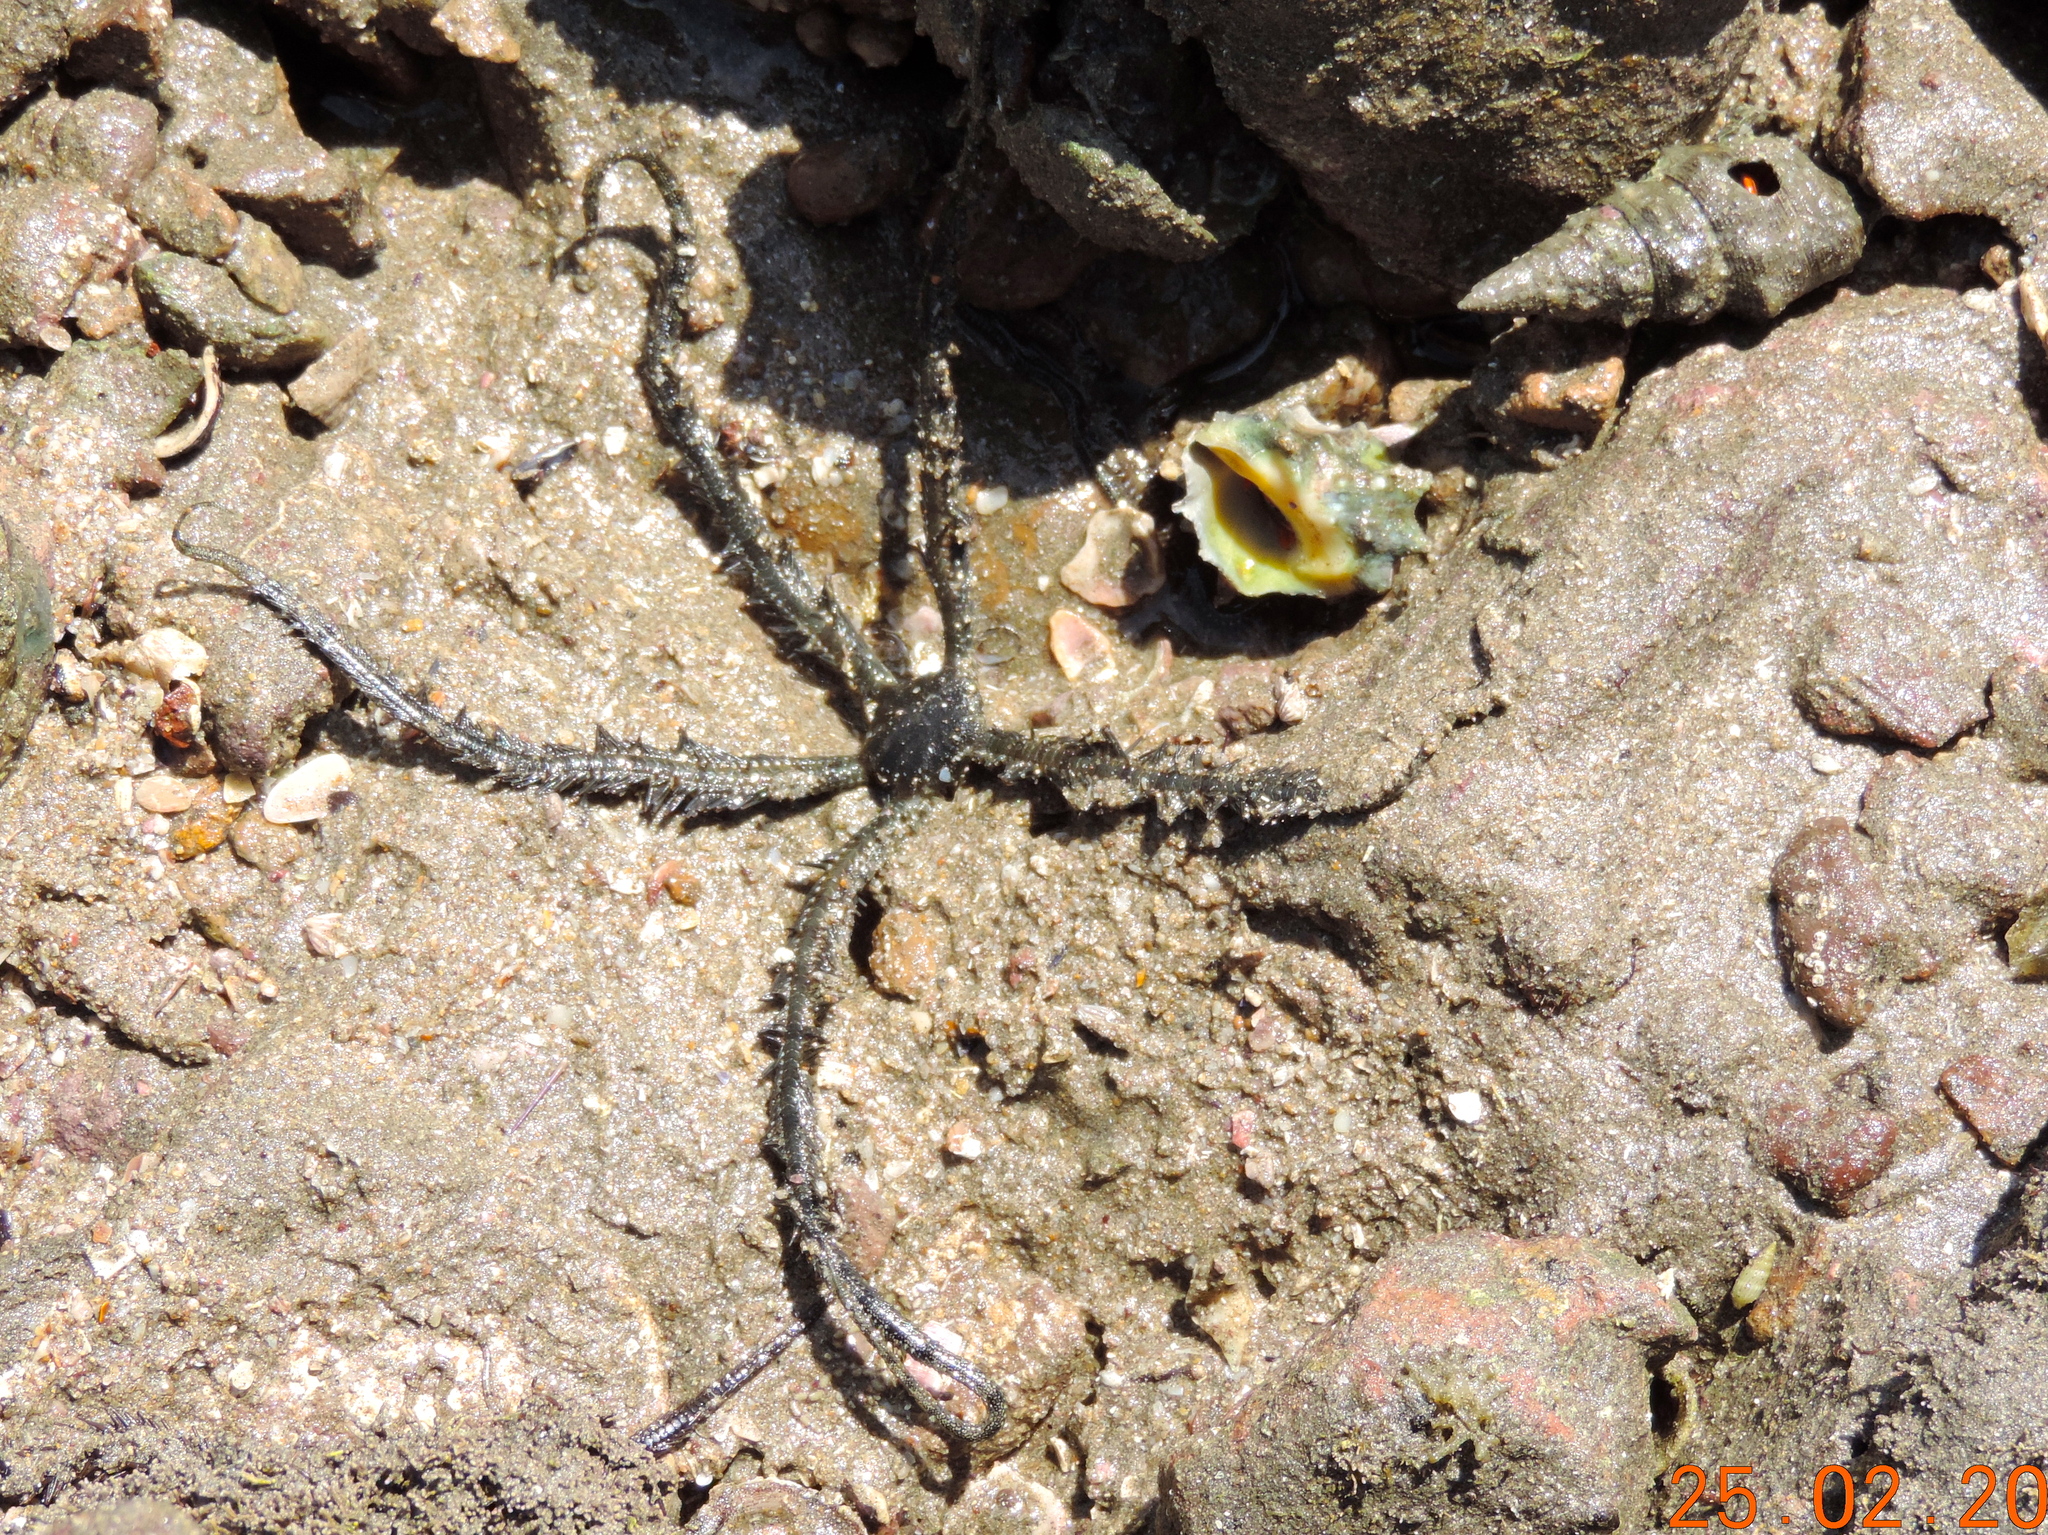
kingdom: Animalia
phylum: Echinodermata
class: Ophiuroidea
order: Ophiacanthida
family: Ophiocomidae
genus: Ophiocomella
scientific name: Ophiocomella alexandri
